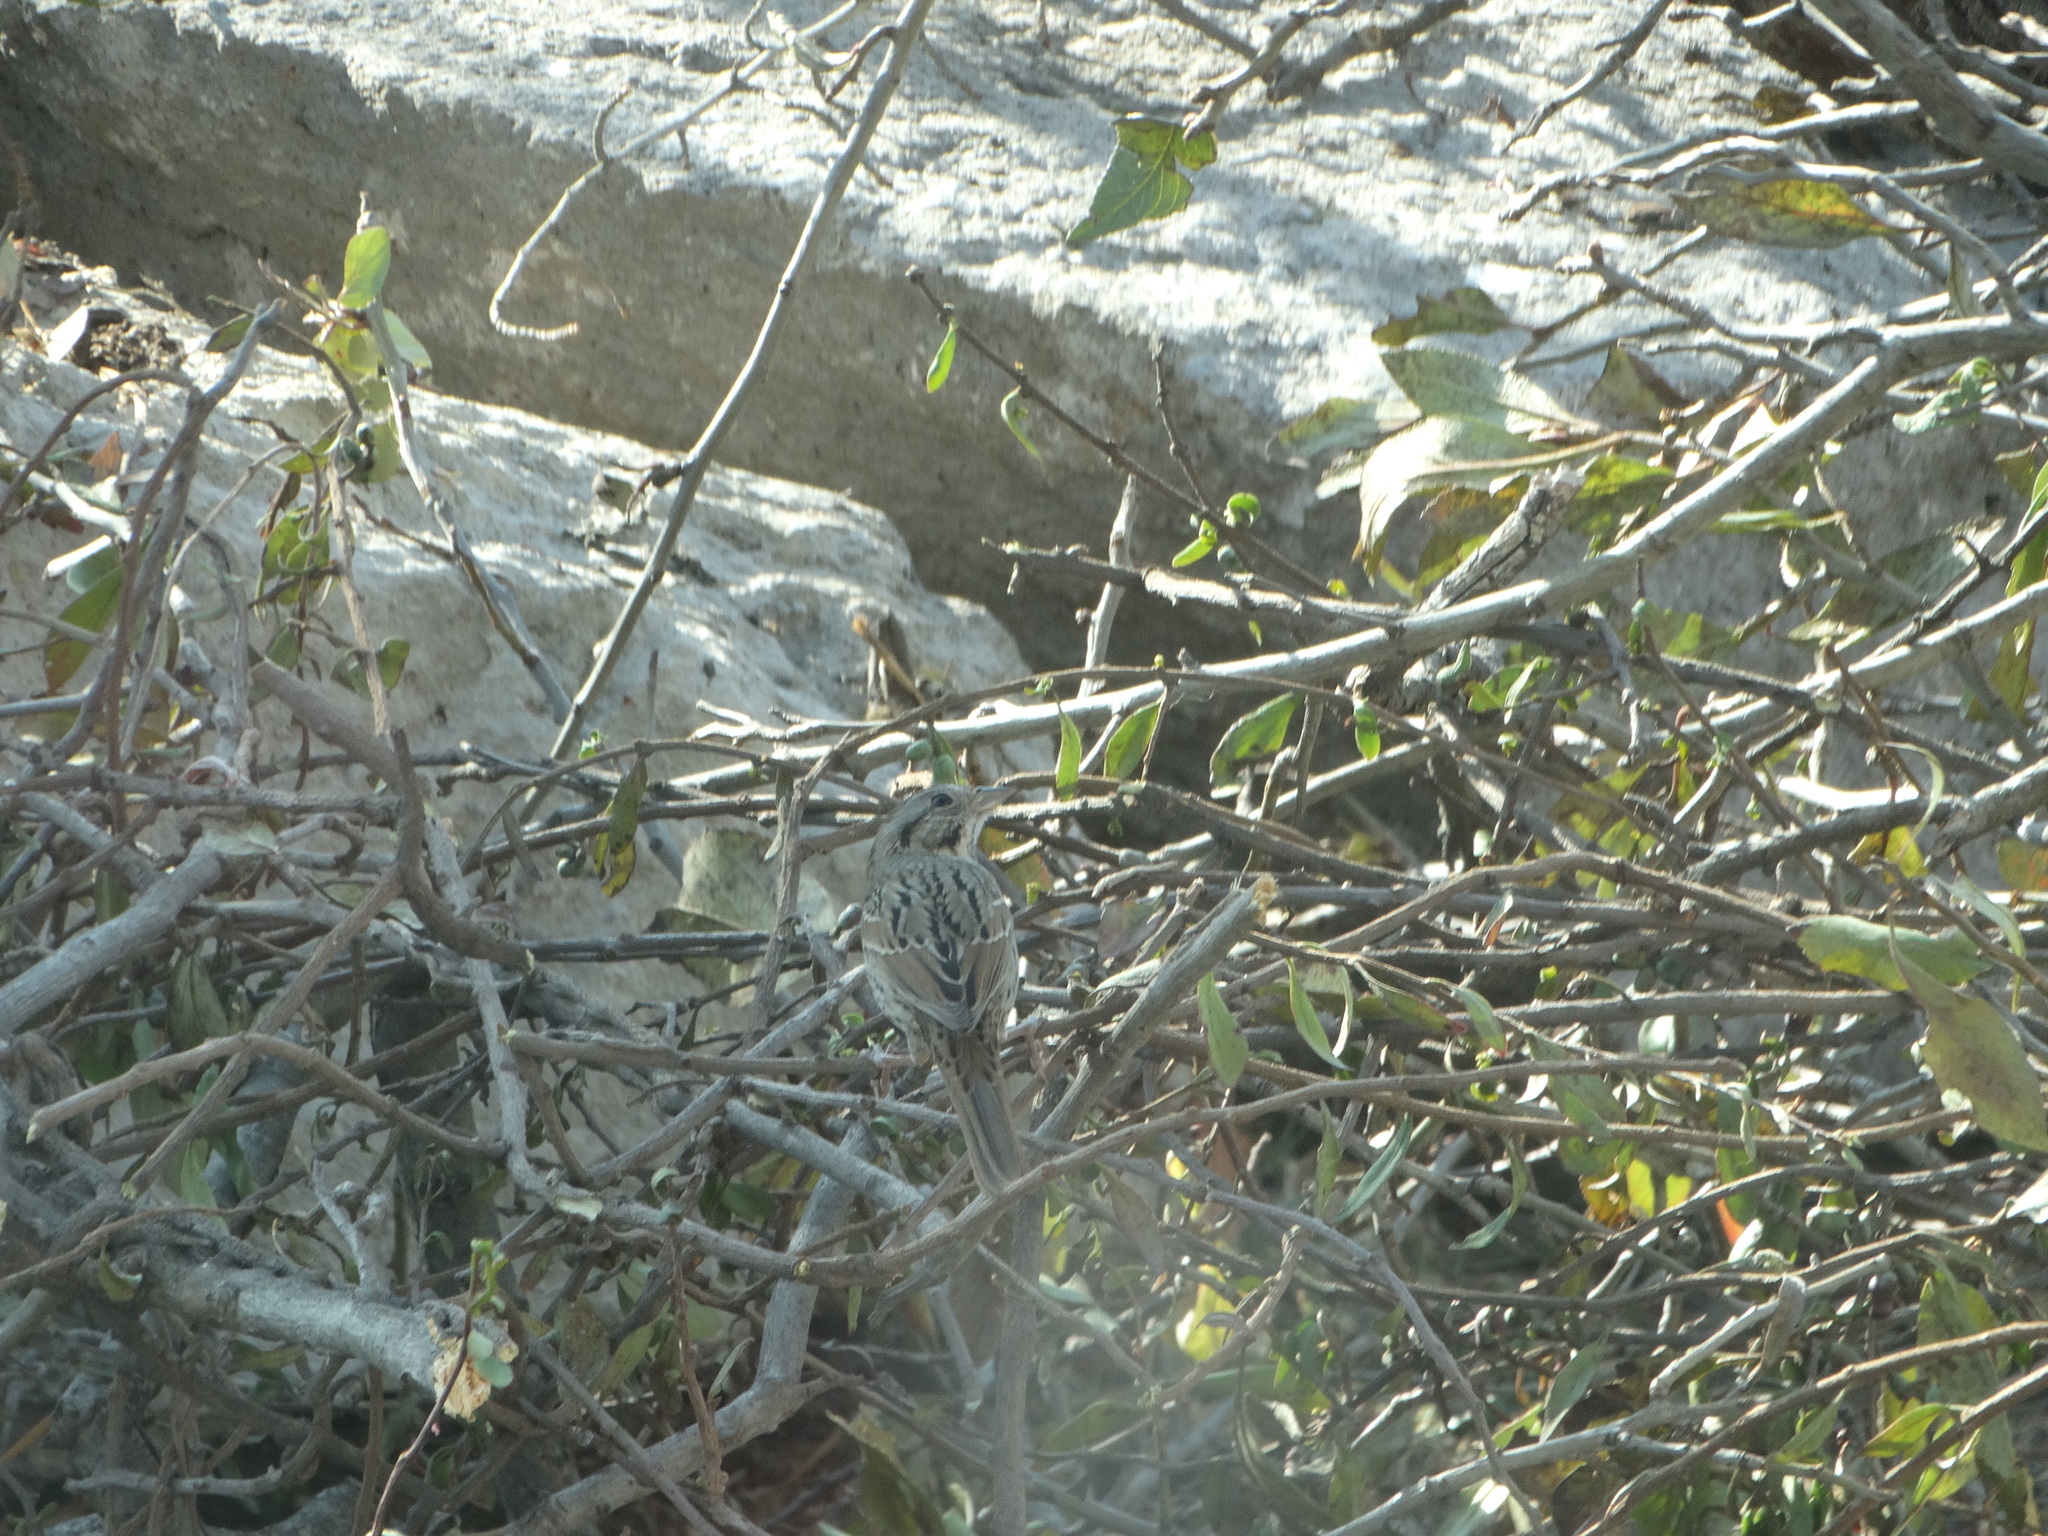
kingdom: Animalia
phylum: Chordata
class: Aves
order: Passeriformes
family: Passerellidae
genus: Melospiza
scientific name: Melospiza lincolnii
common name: Lincoln's sparrow
